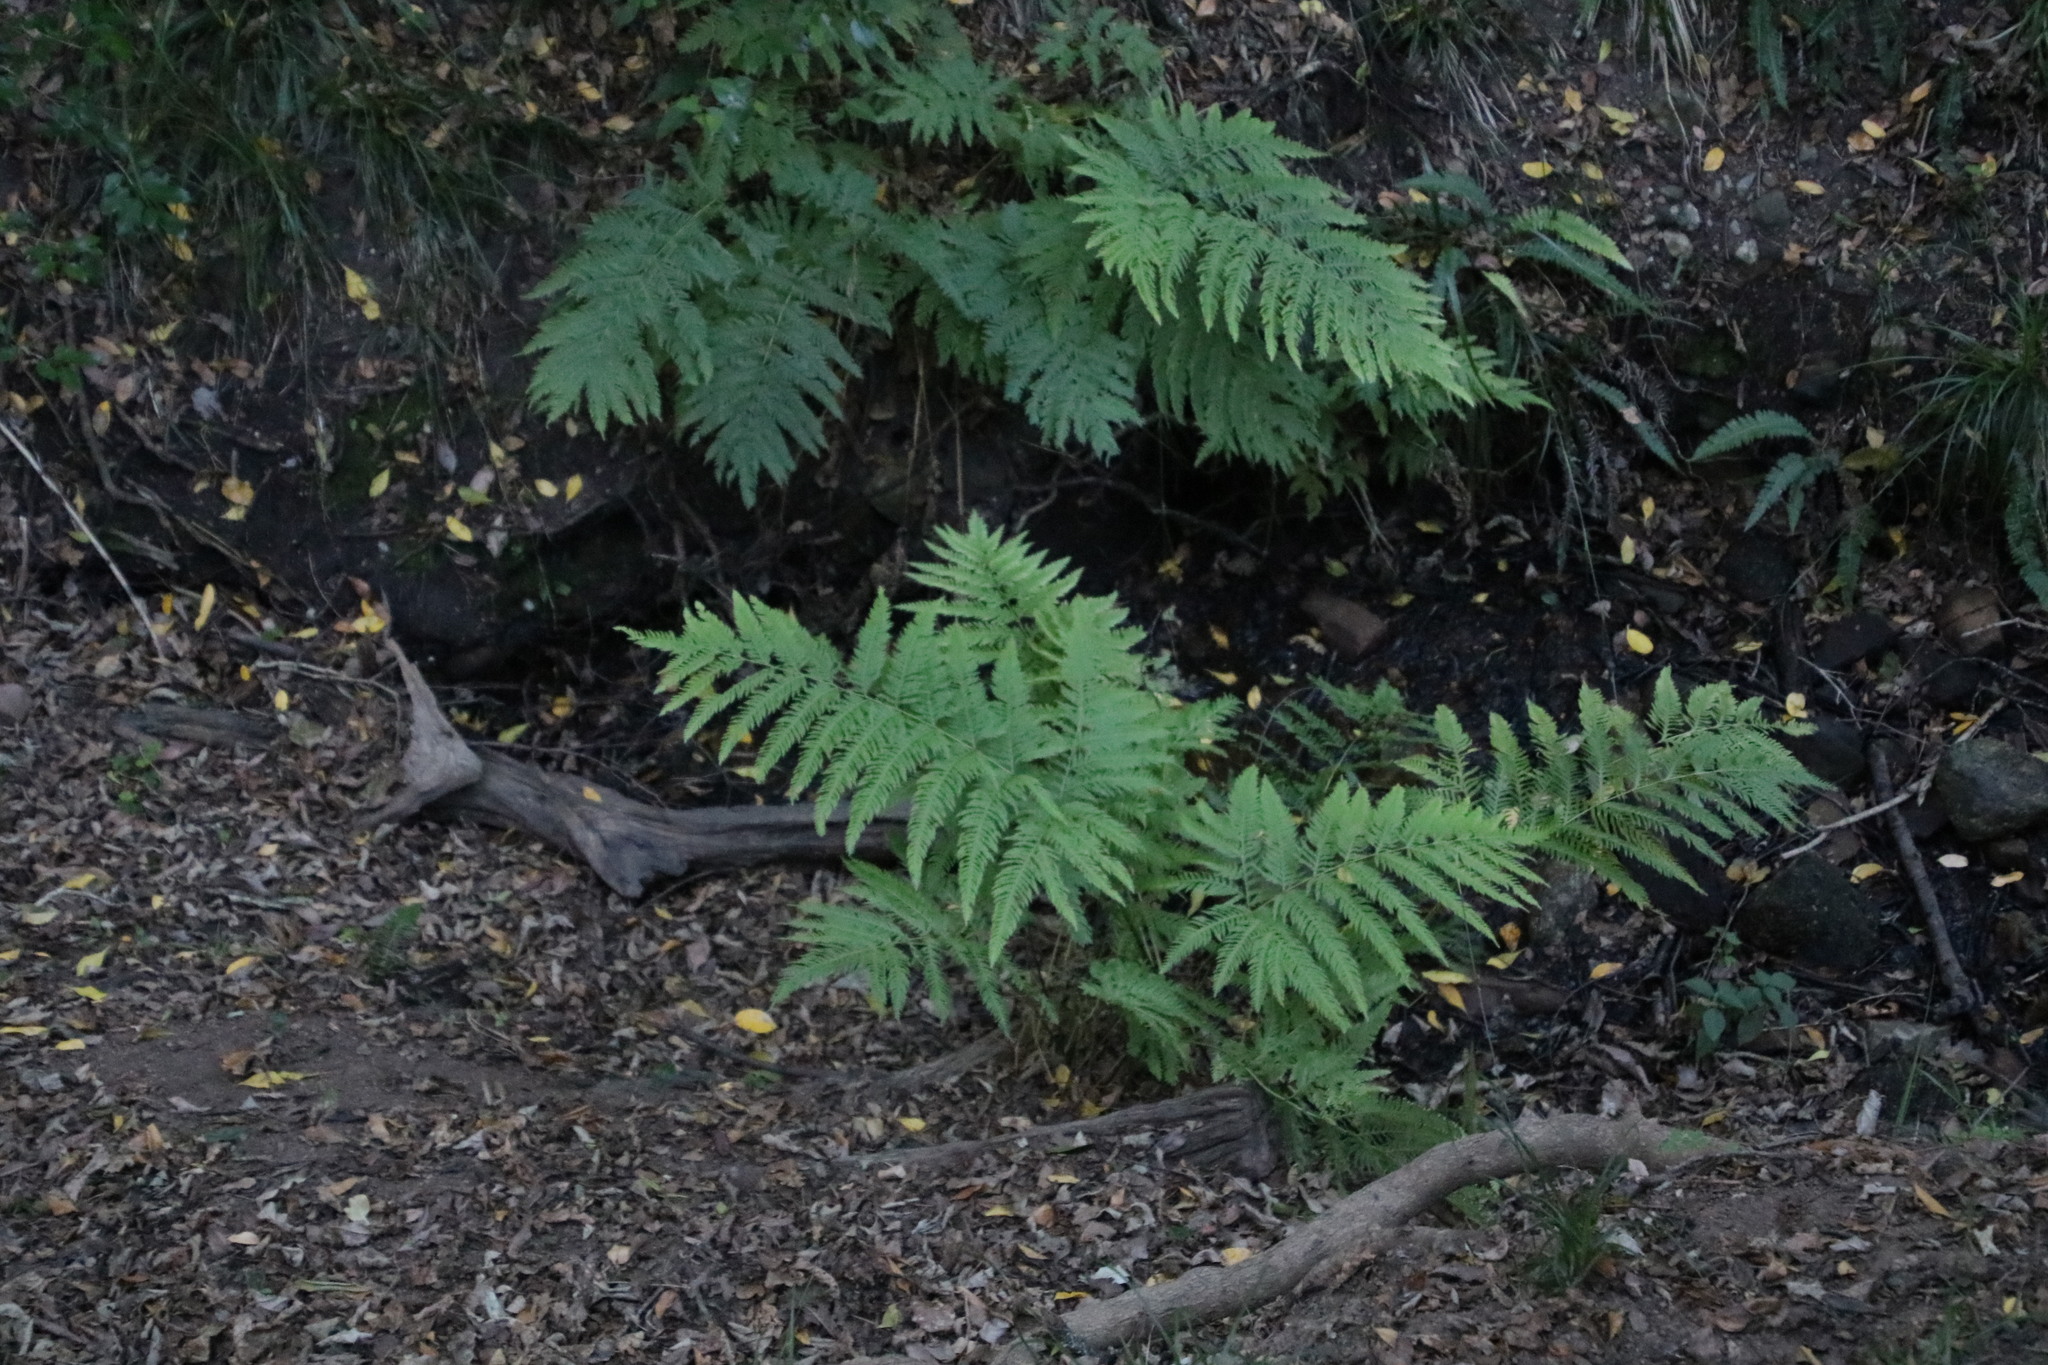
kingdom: Plantae
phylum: Tracheophyta
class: Polypodiopsida
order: Polypodiales
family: Pteridaceae
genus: Pteris
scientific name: Pteris dentata
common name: Toothed brake
